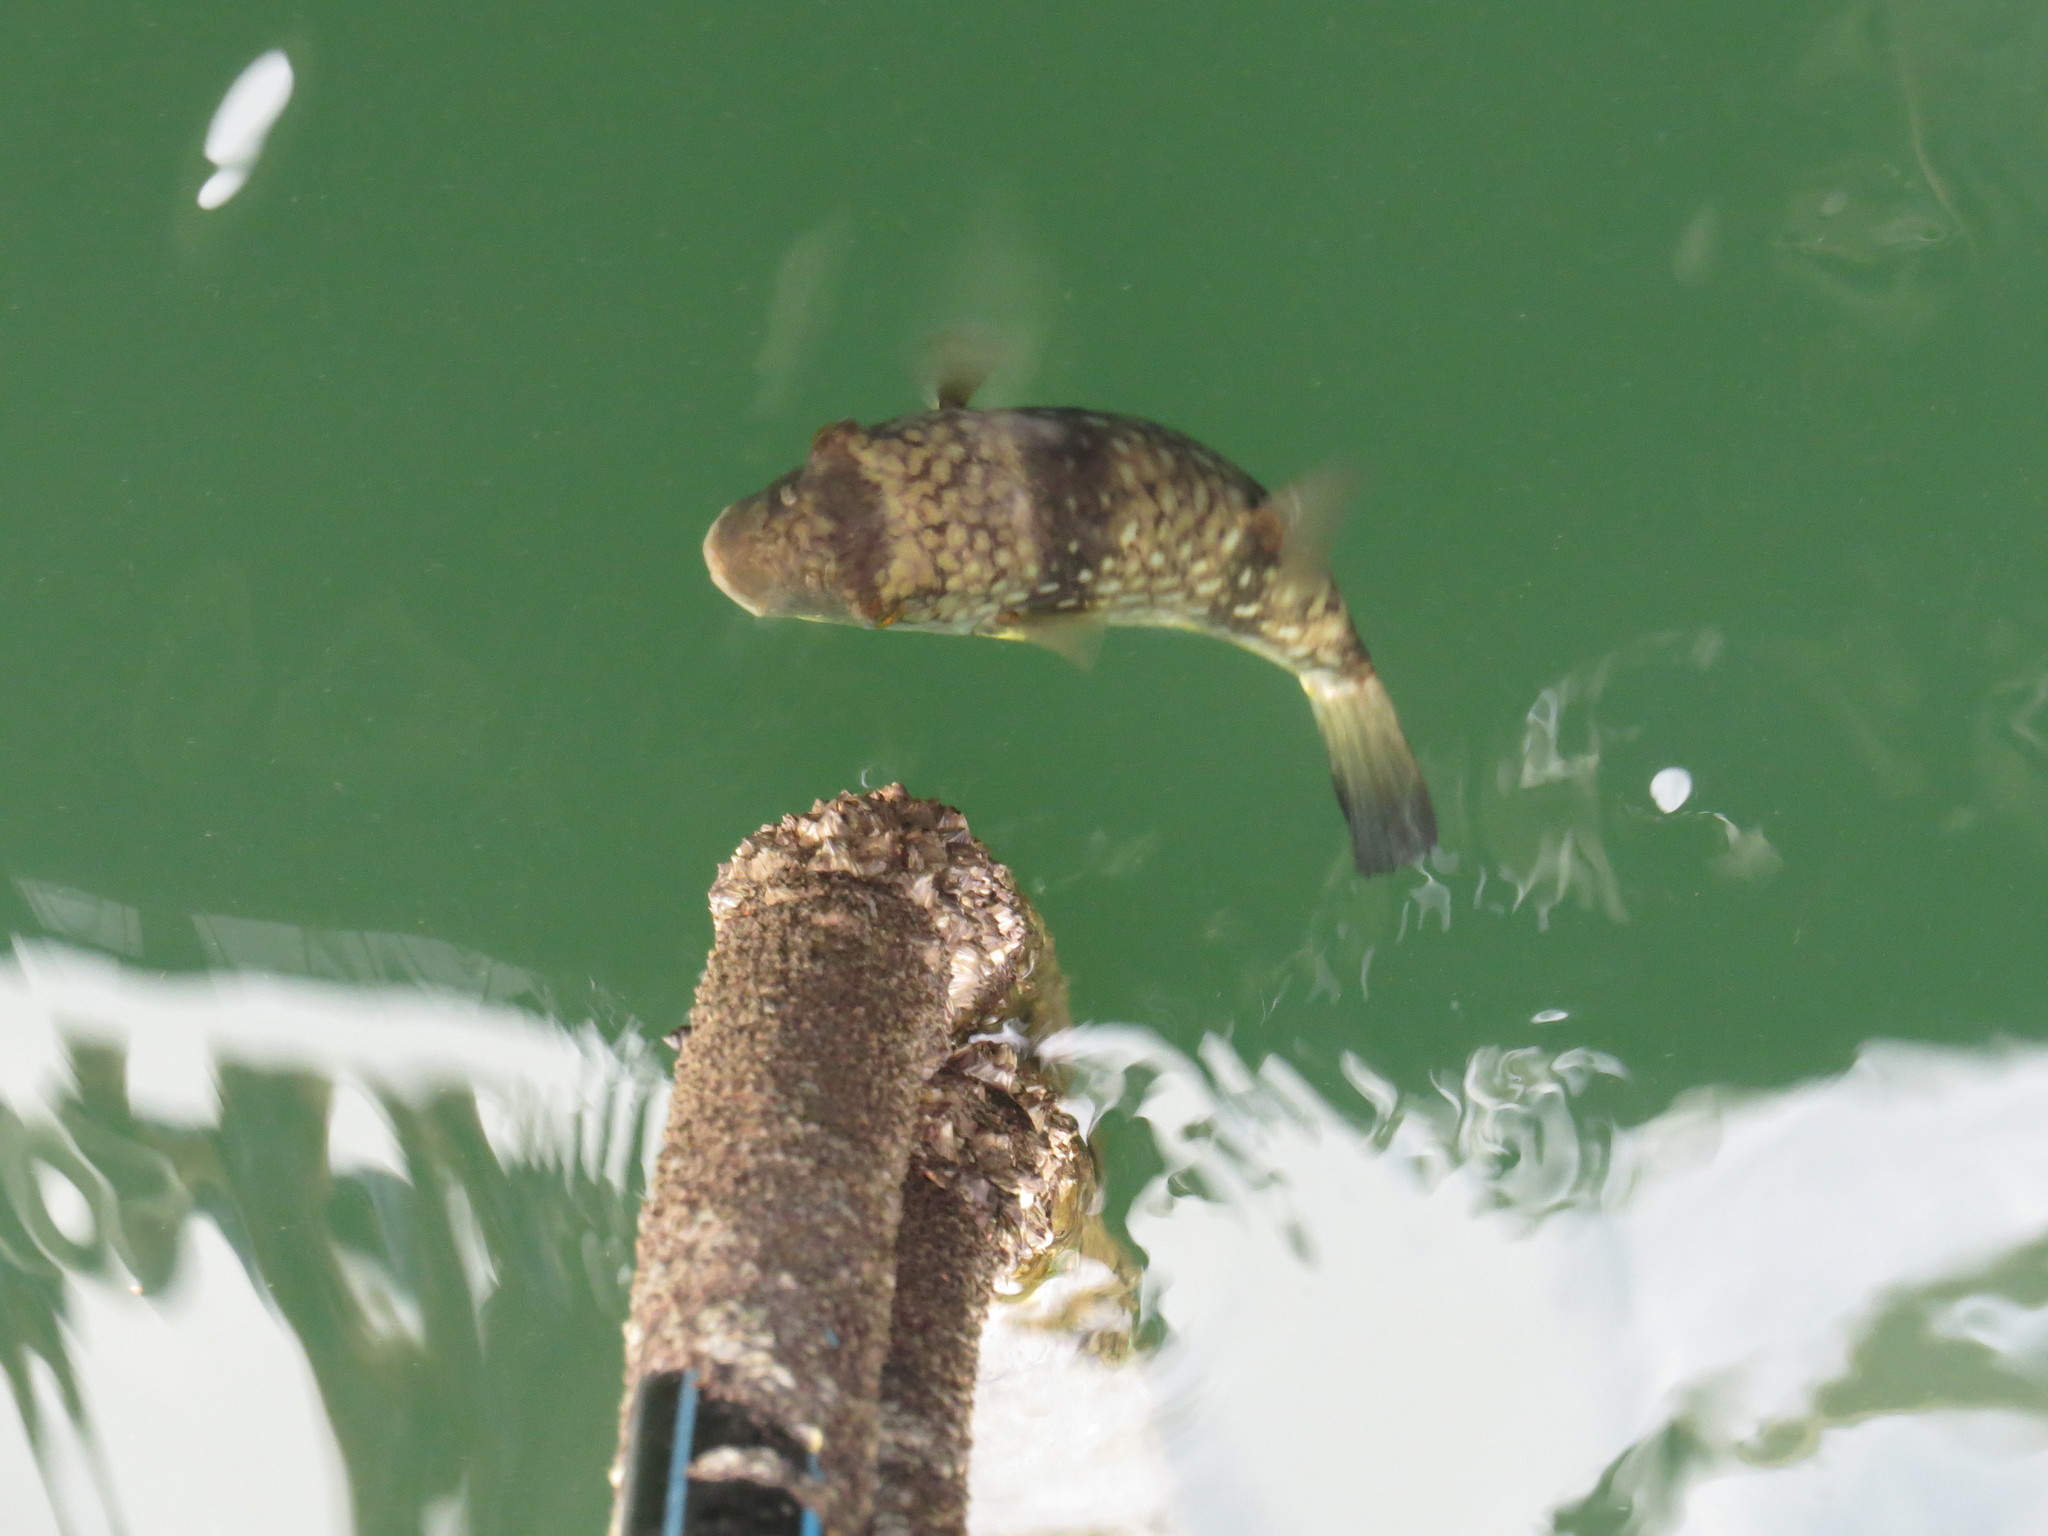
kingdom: Animalia
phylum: Chordata
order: Tetraodontiformes
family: Tetraodontidae
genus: Chelonodontops
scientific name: Chelonodontops patoca
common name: Gangetic blow fish
